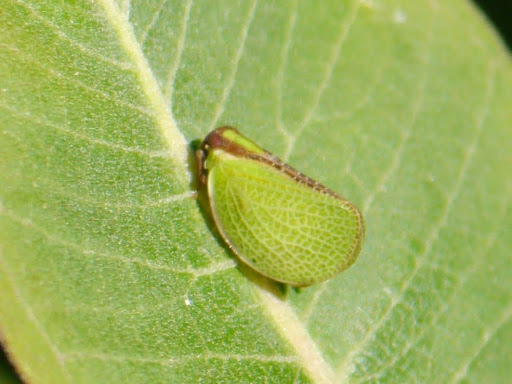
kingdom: Animalia
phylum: Arthropoda
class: Insecta
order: Hemiptera
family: Acanaloniidae
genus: Acanalonia
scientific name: Acanalonia bivittata
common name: Two-striped planthopper
